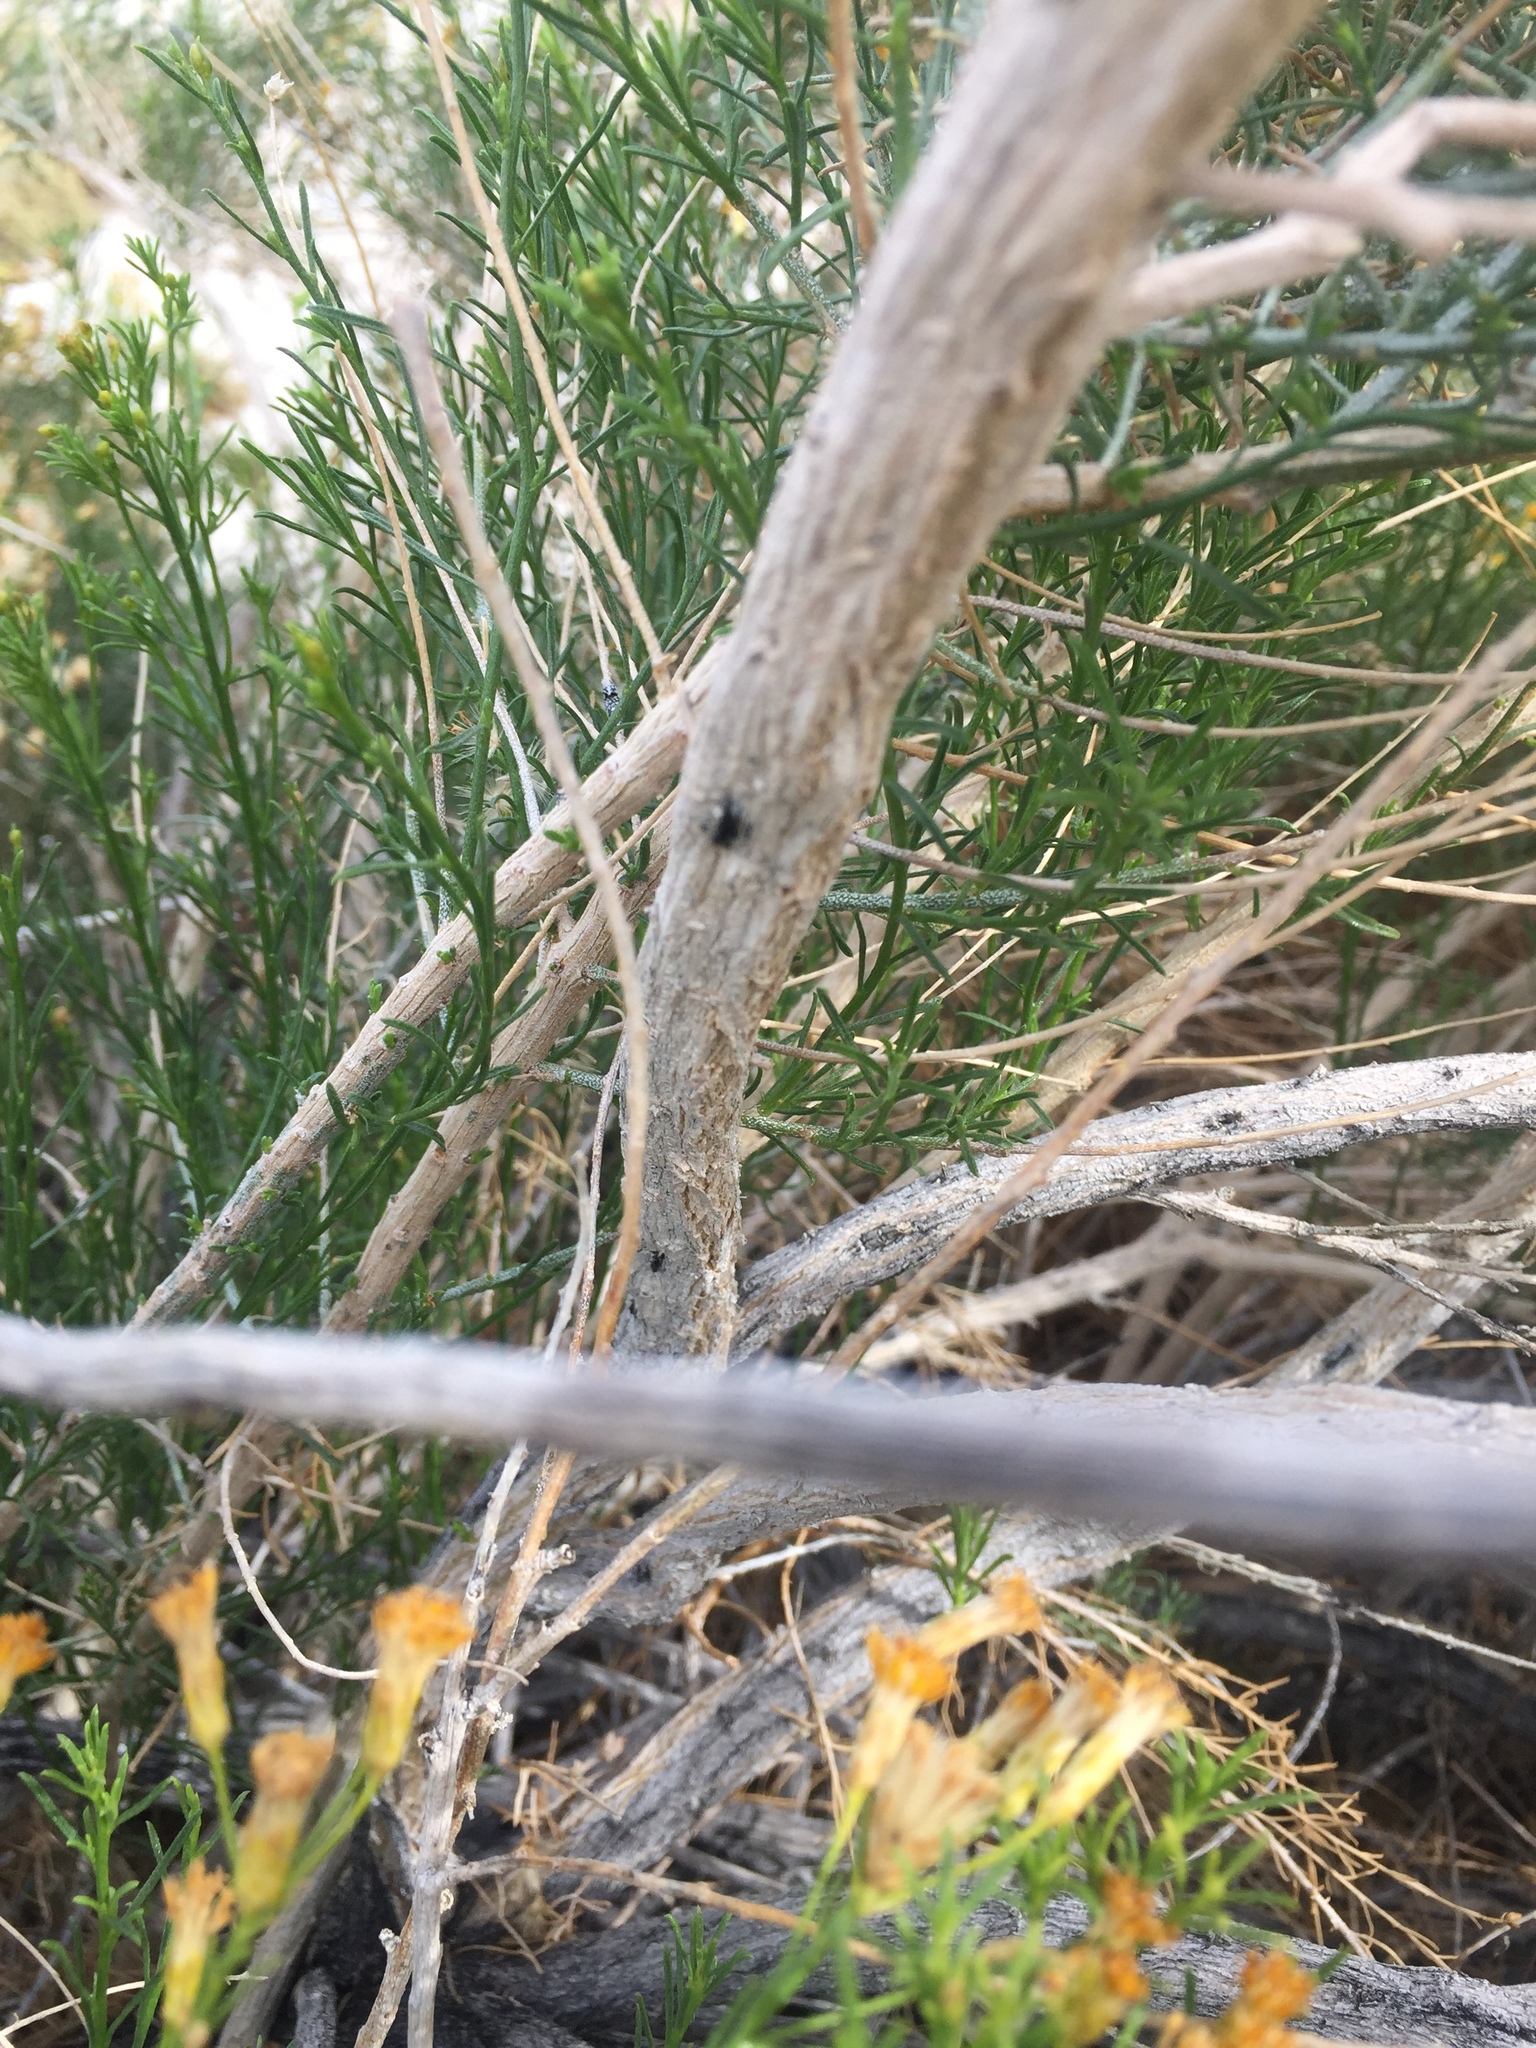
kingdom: Plantae
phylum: Tracheophyta
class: Magnoliopsida
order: Asterales
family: Asteraceae
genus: Ericameria
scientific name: Ericameria paniculata
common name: Punctate rabbitbrush
